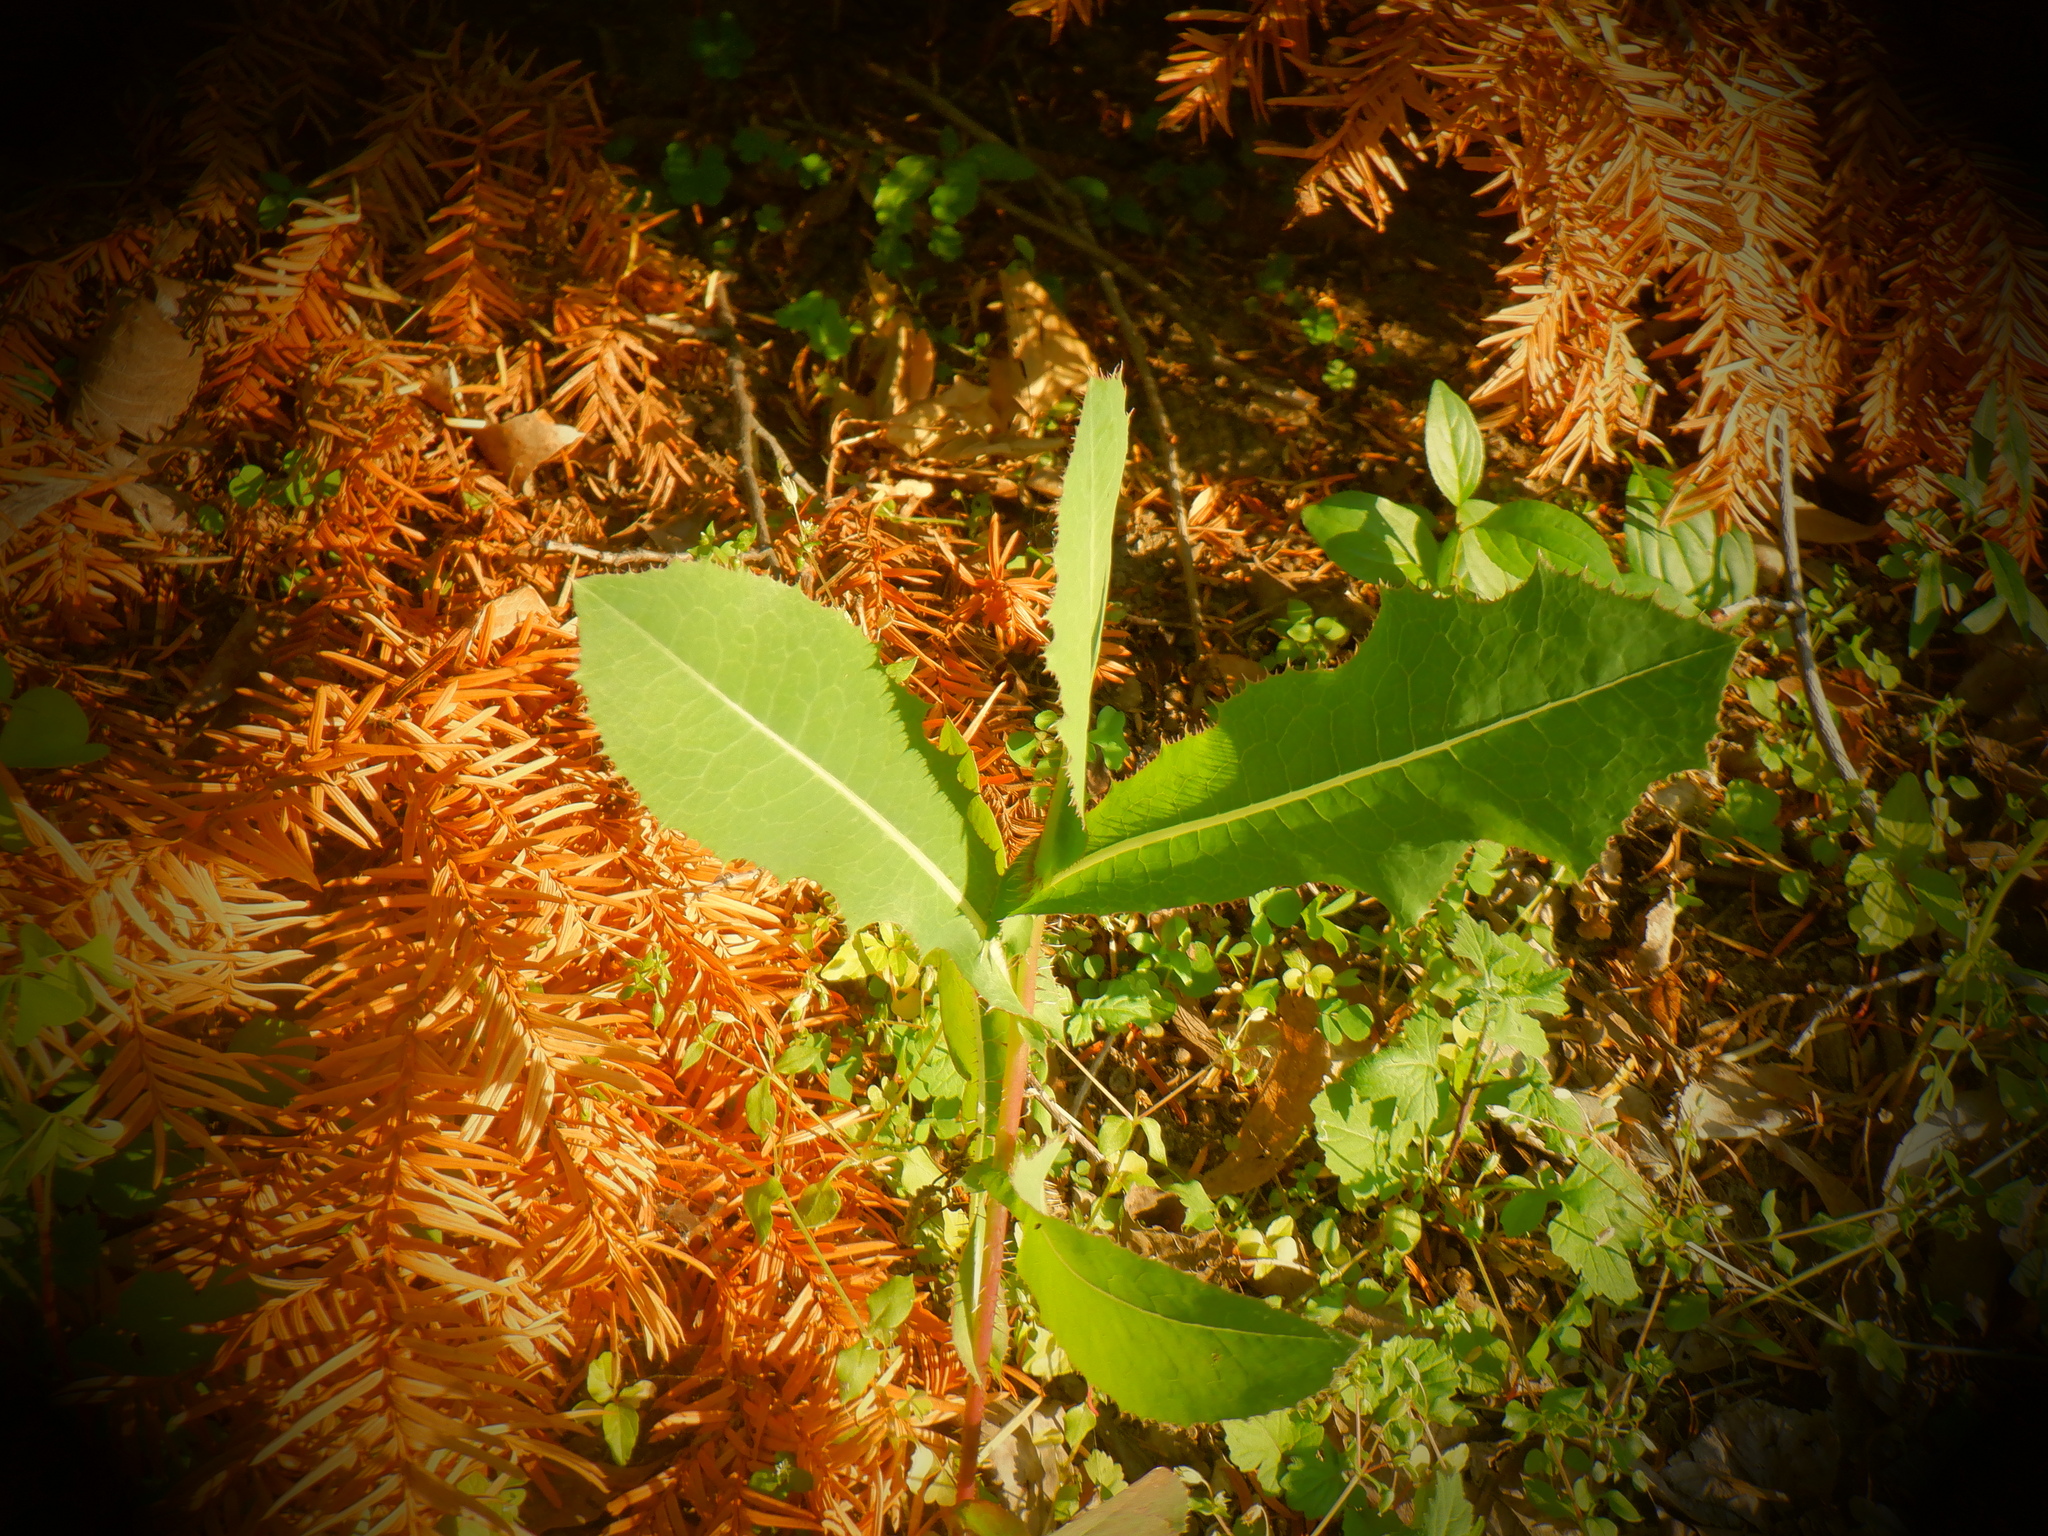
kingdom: Plantae
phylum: Tracheophyta
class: Magnoliopsida
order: Asterales
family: Asteraceae
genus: Lactuca
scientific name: Lactuca serriola
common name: Prickly lettuce
